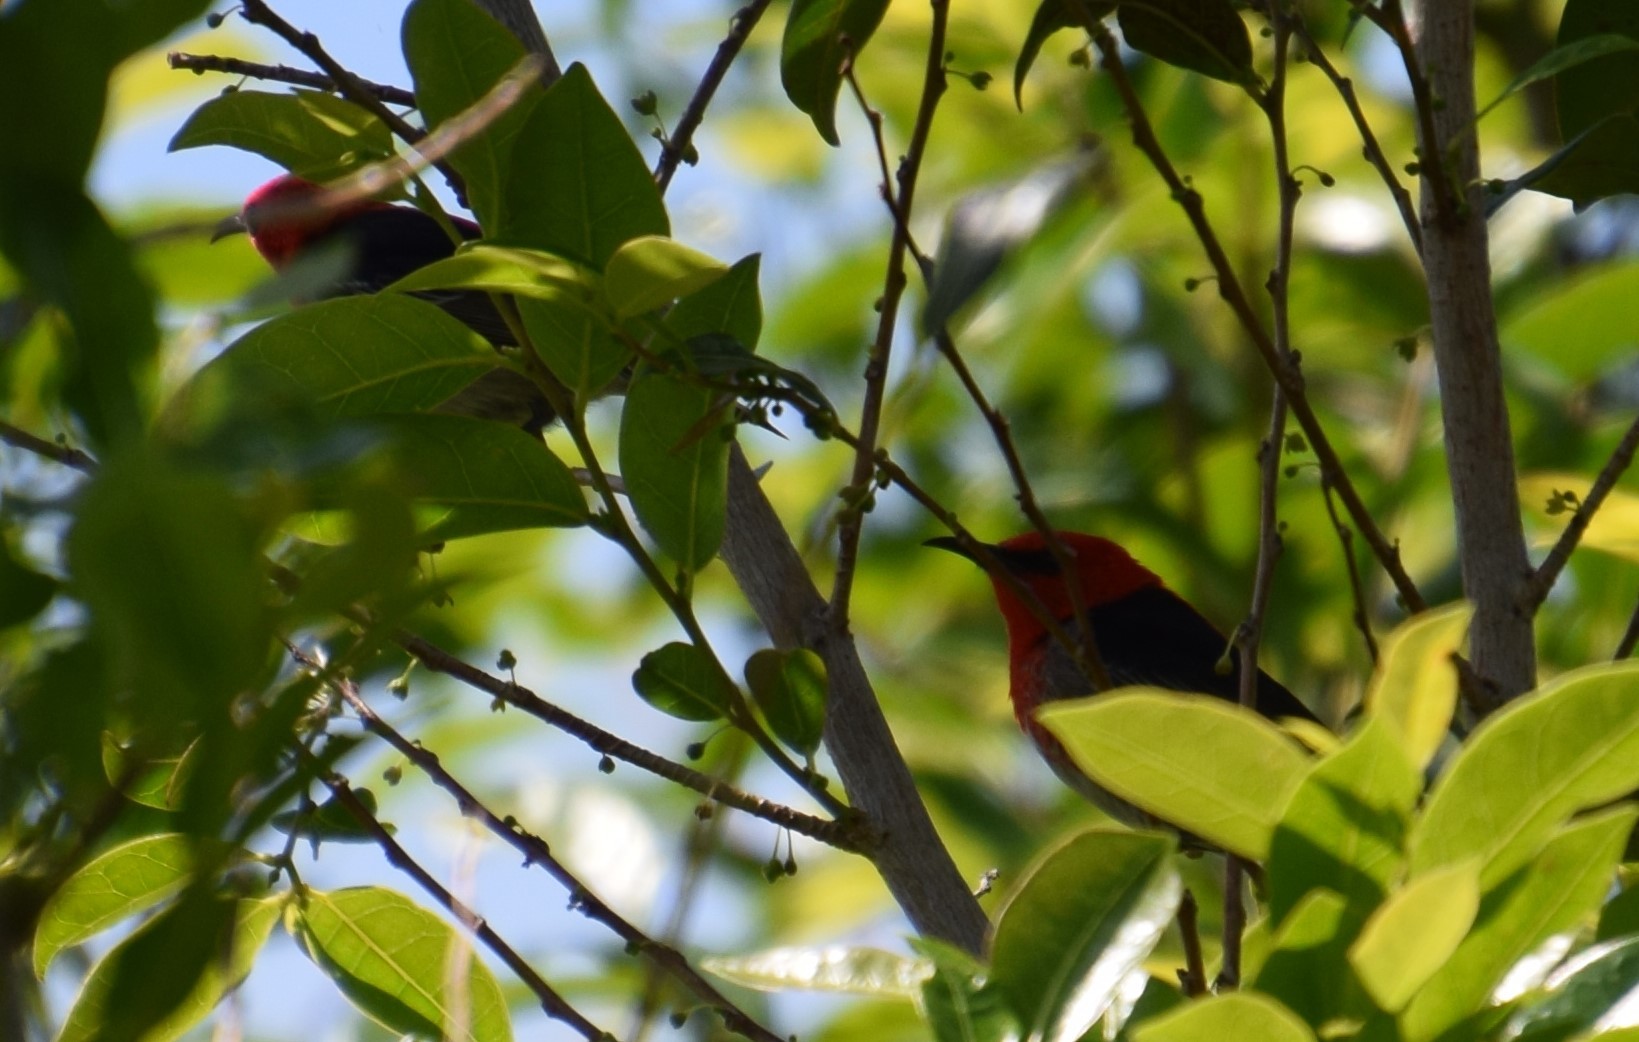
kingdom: Animalia
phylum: Chordata
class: Aves
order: Passeriformes
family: Meliphagidae
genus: Myzomela
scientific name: Myzomela sanguinolenta
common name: Scarlet myzomela
